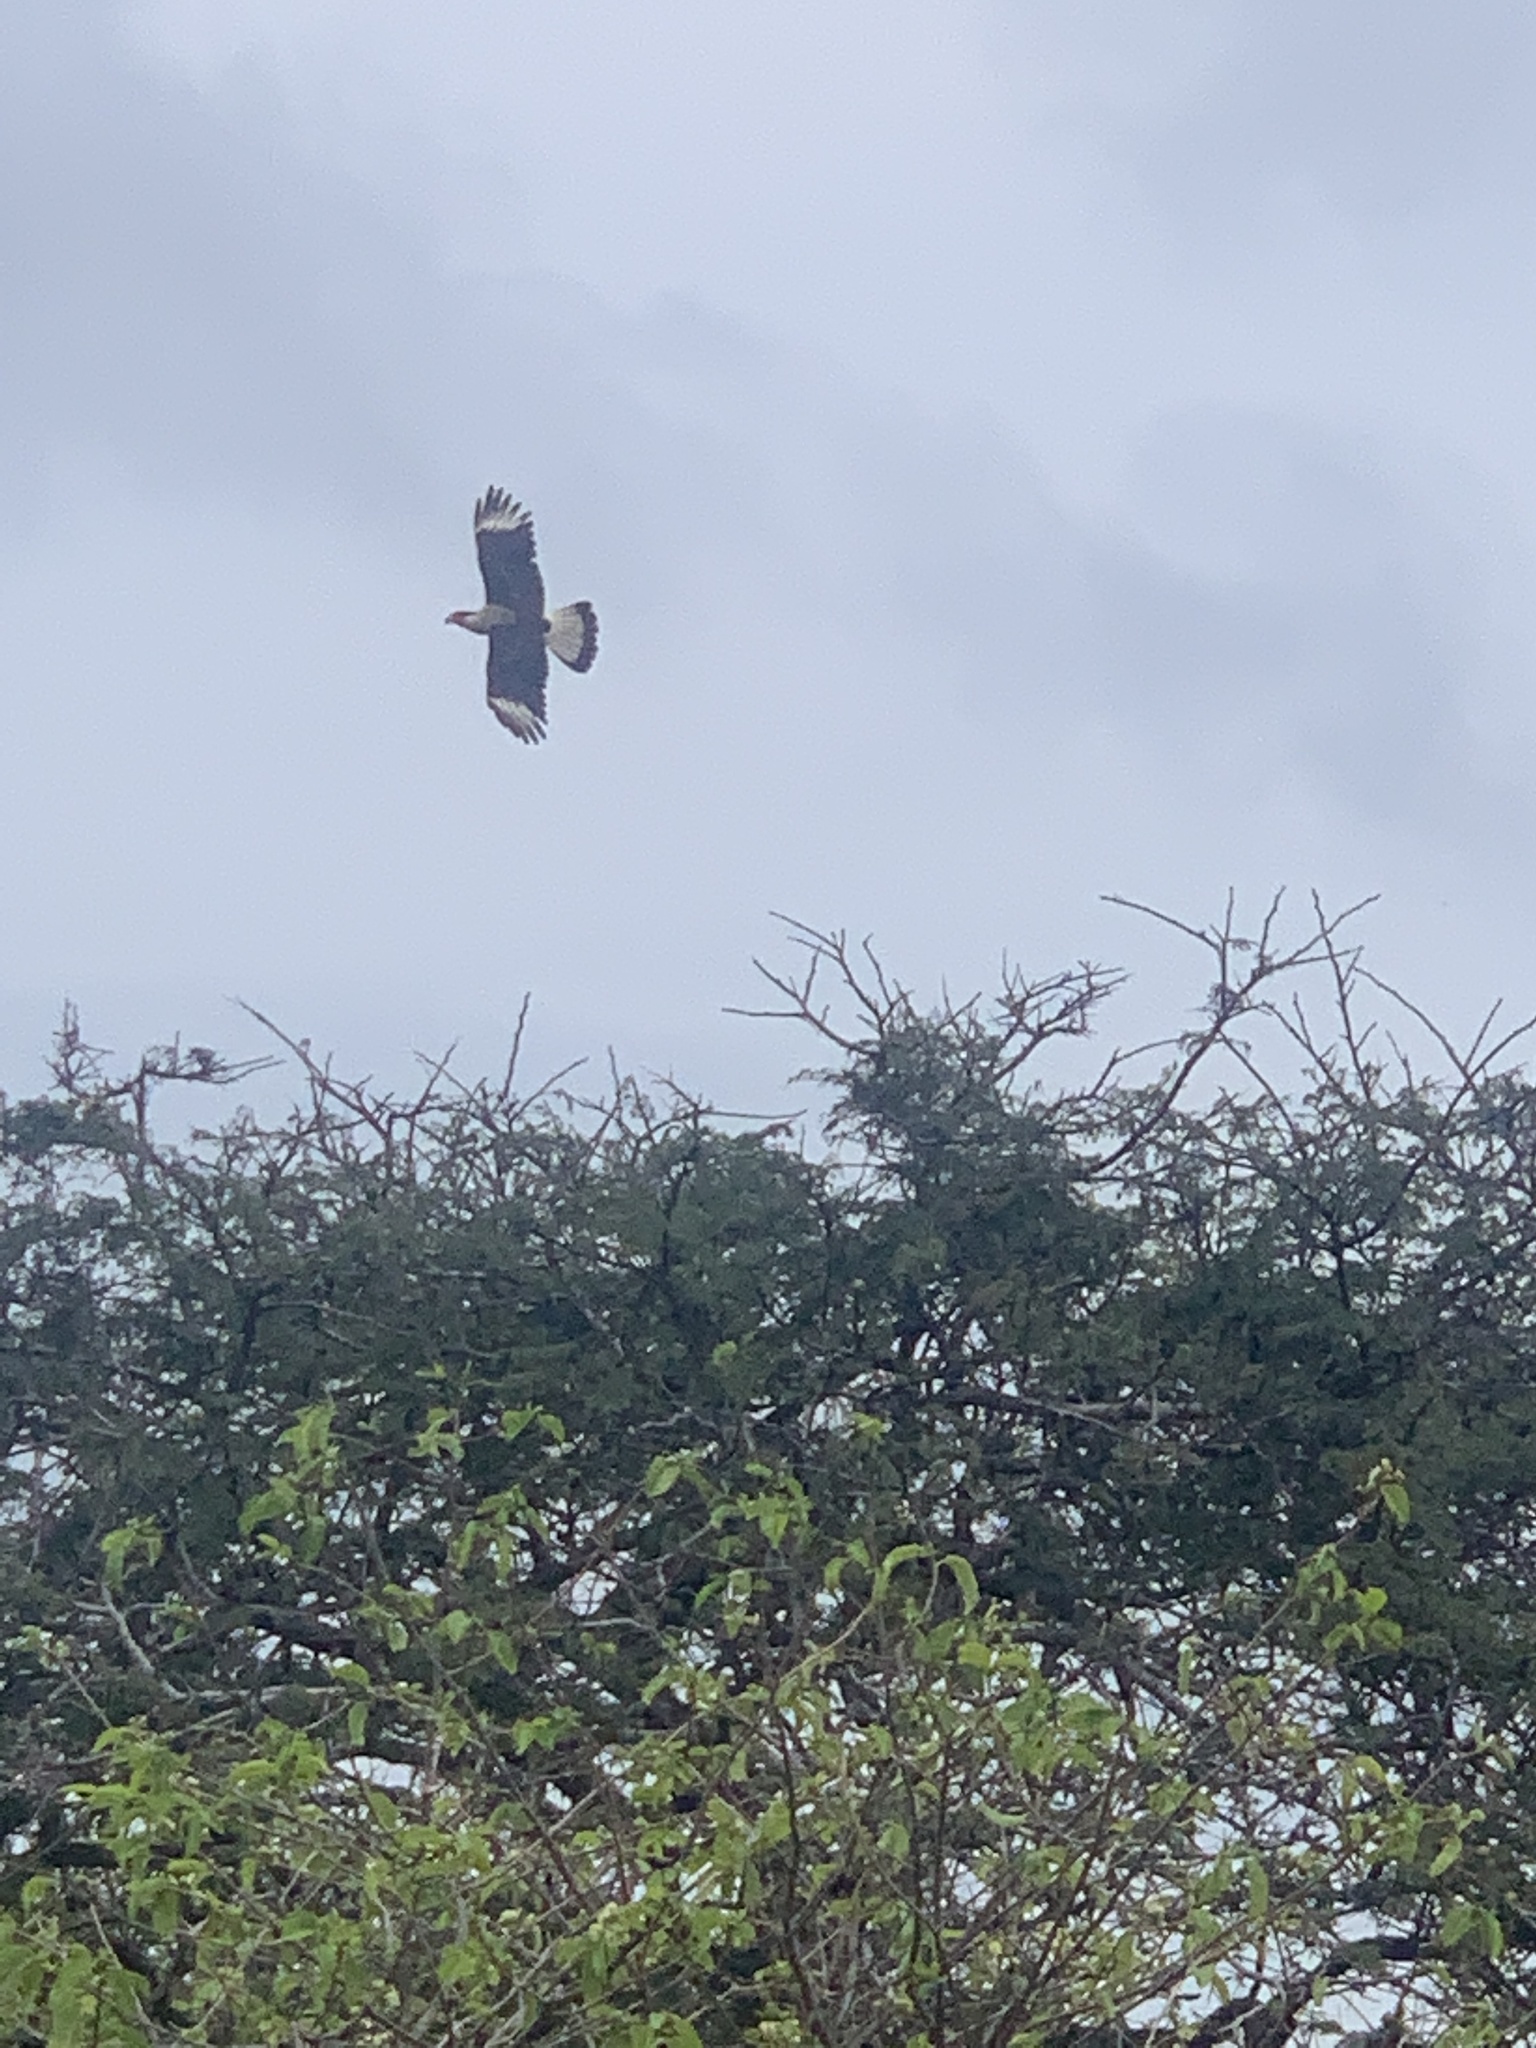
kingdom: Animalia
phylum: Chordata
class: Aves
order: Falconiformes
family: Falconidae
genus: Caracara
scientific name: Caracara plancus
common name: Southern caracara
